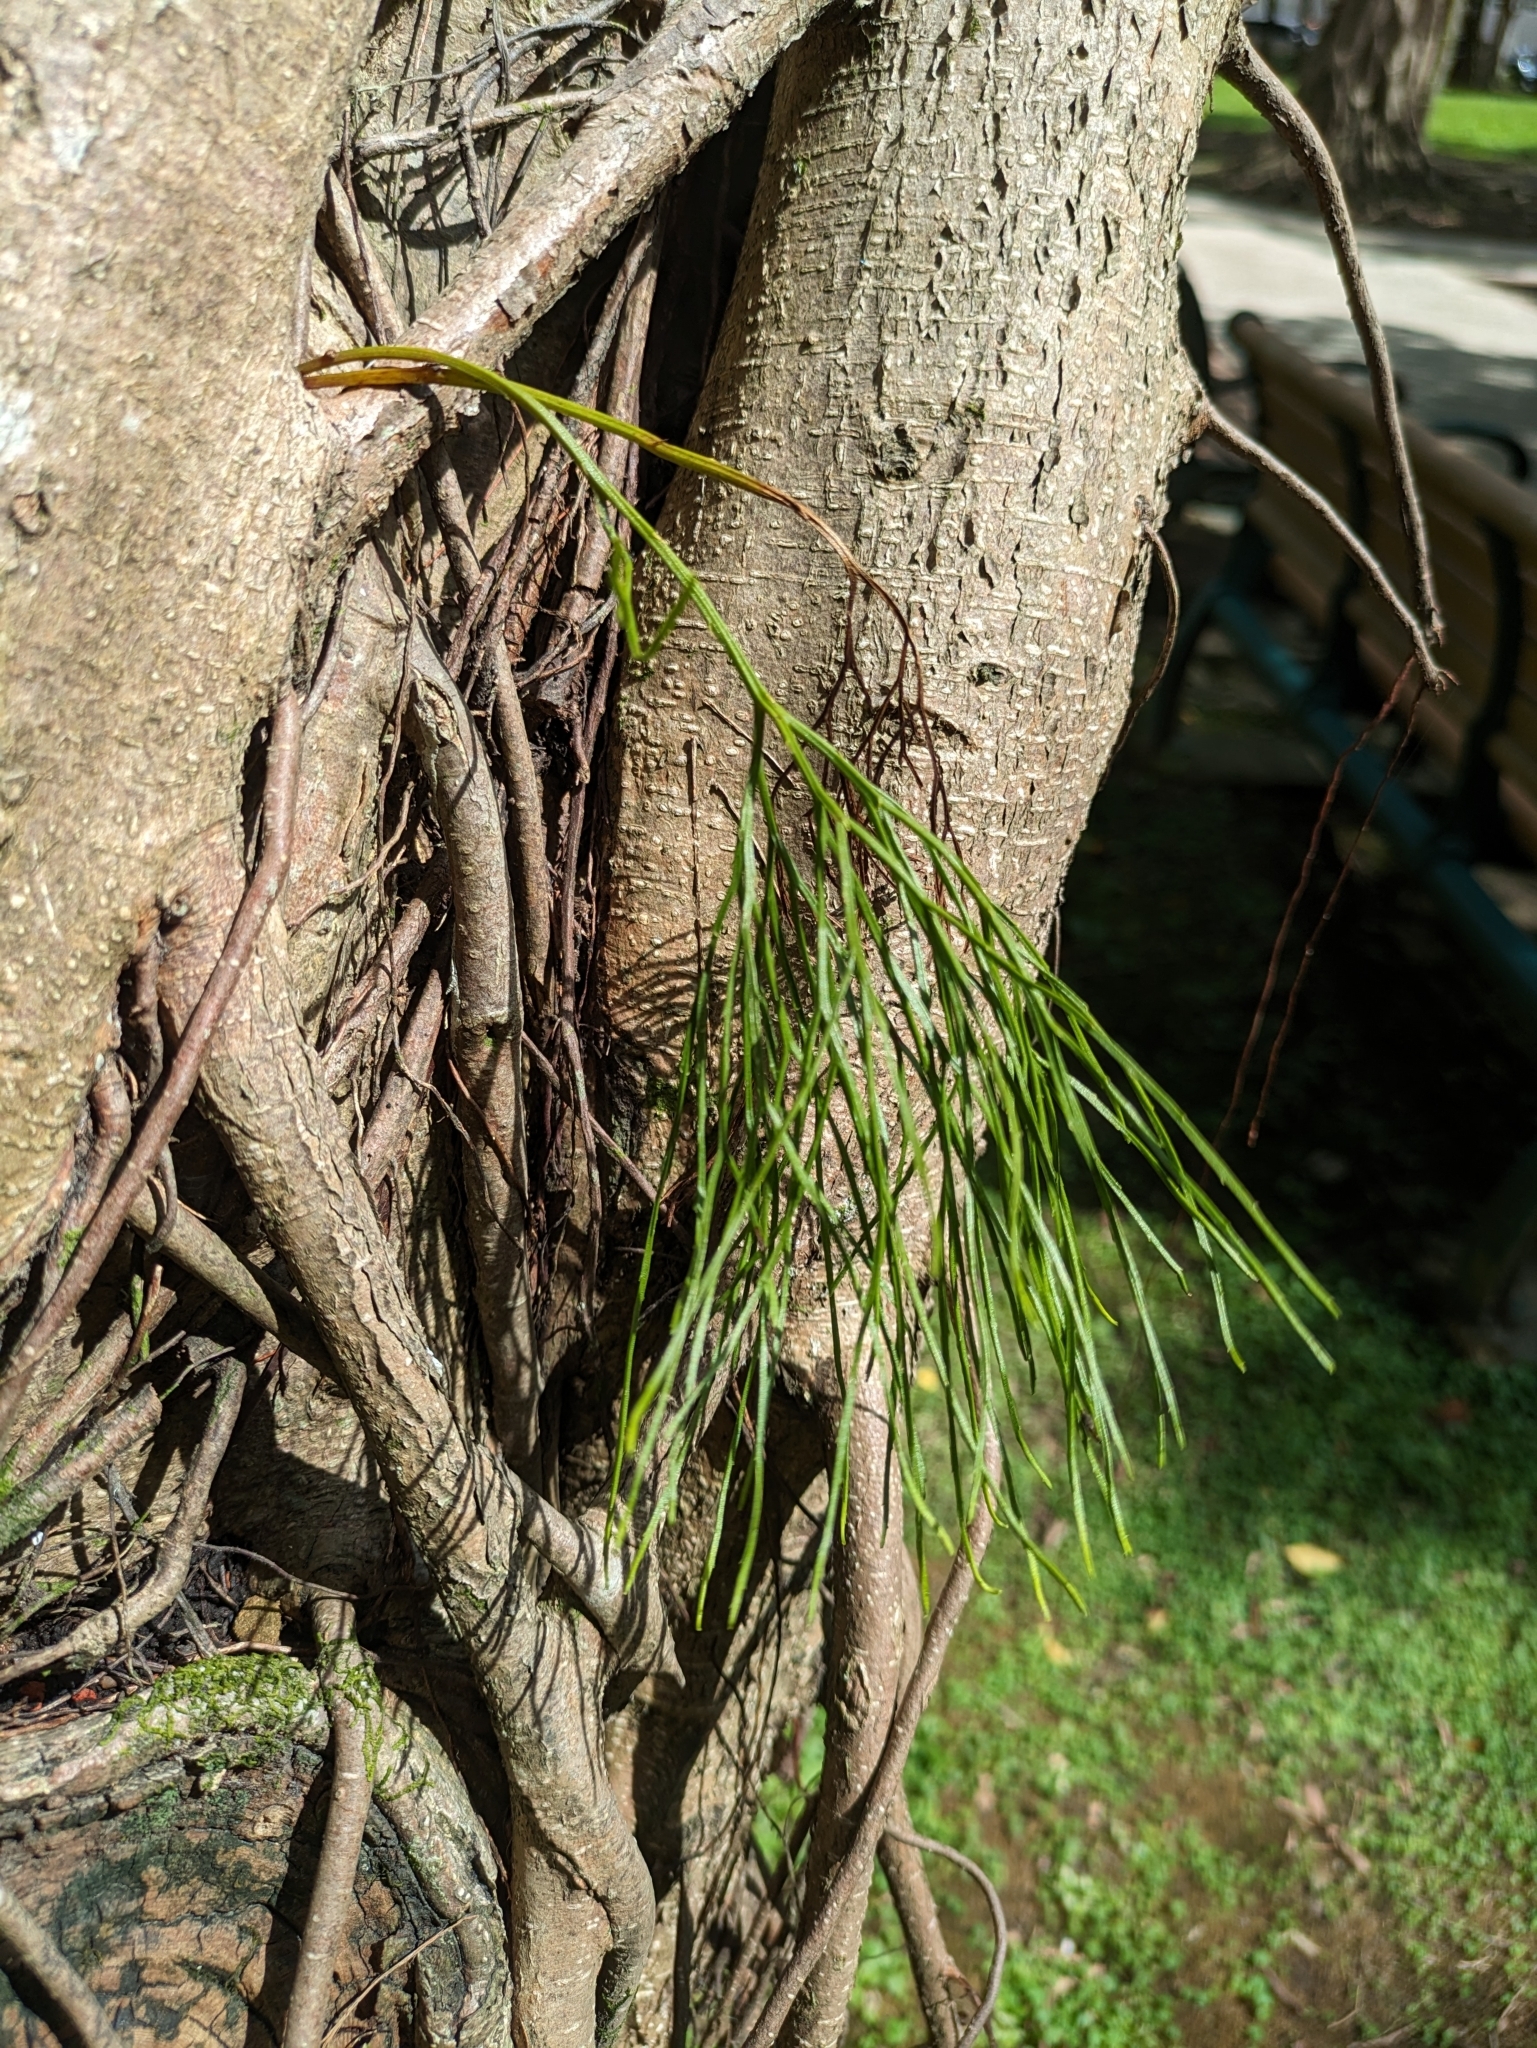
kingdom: Plantae
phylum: Tracheophyta
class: Polypodiopsida
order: Psilotales
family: Psilotaceae
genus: Psilotum
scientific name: Psilotum nudum
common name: Skeleton fork fern
